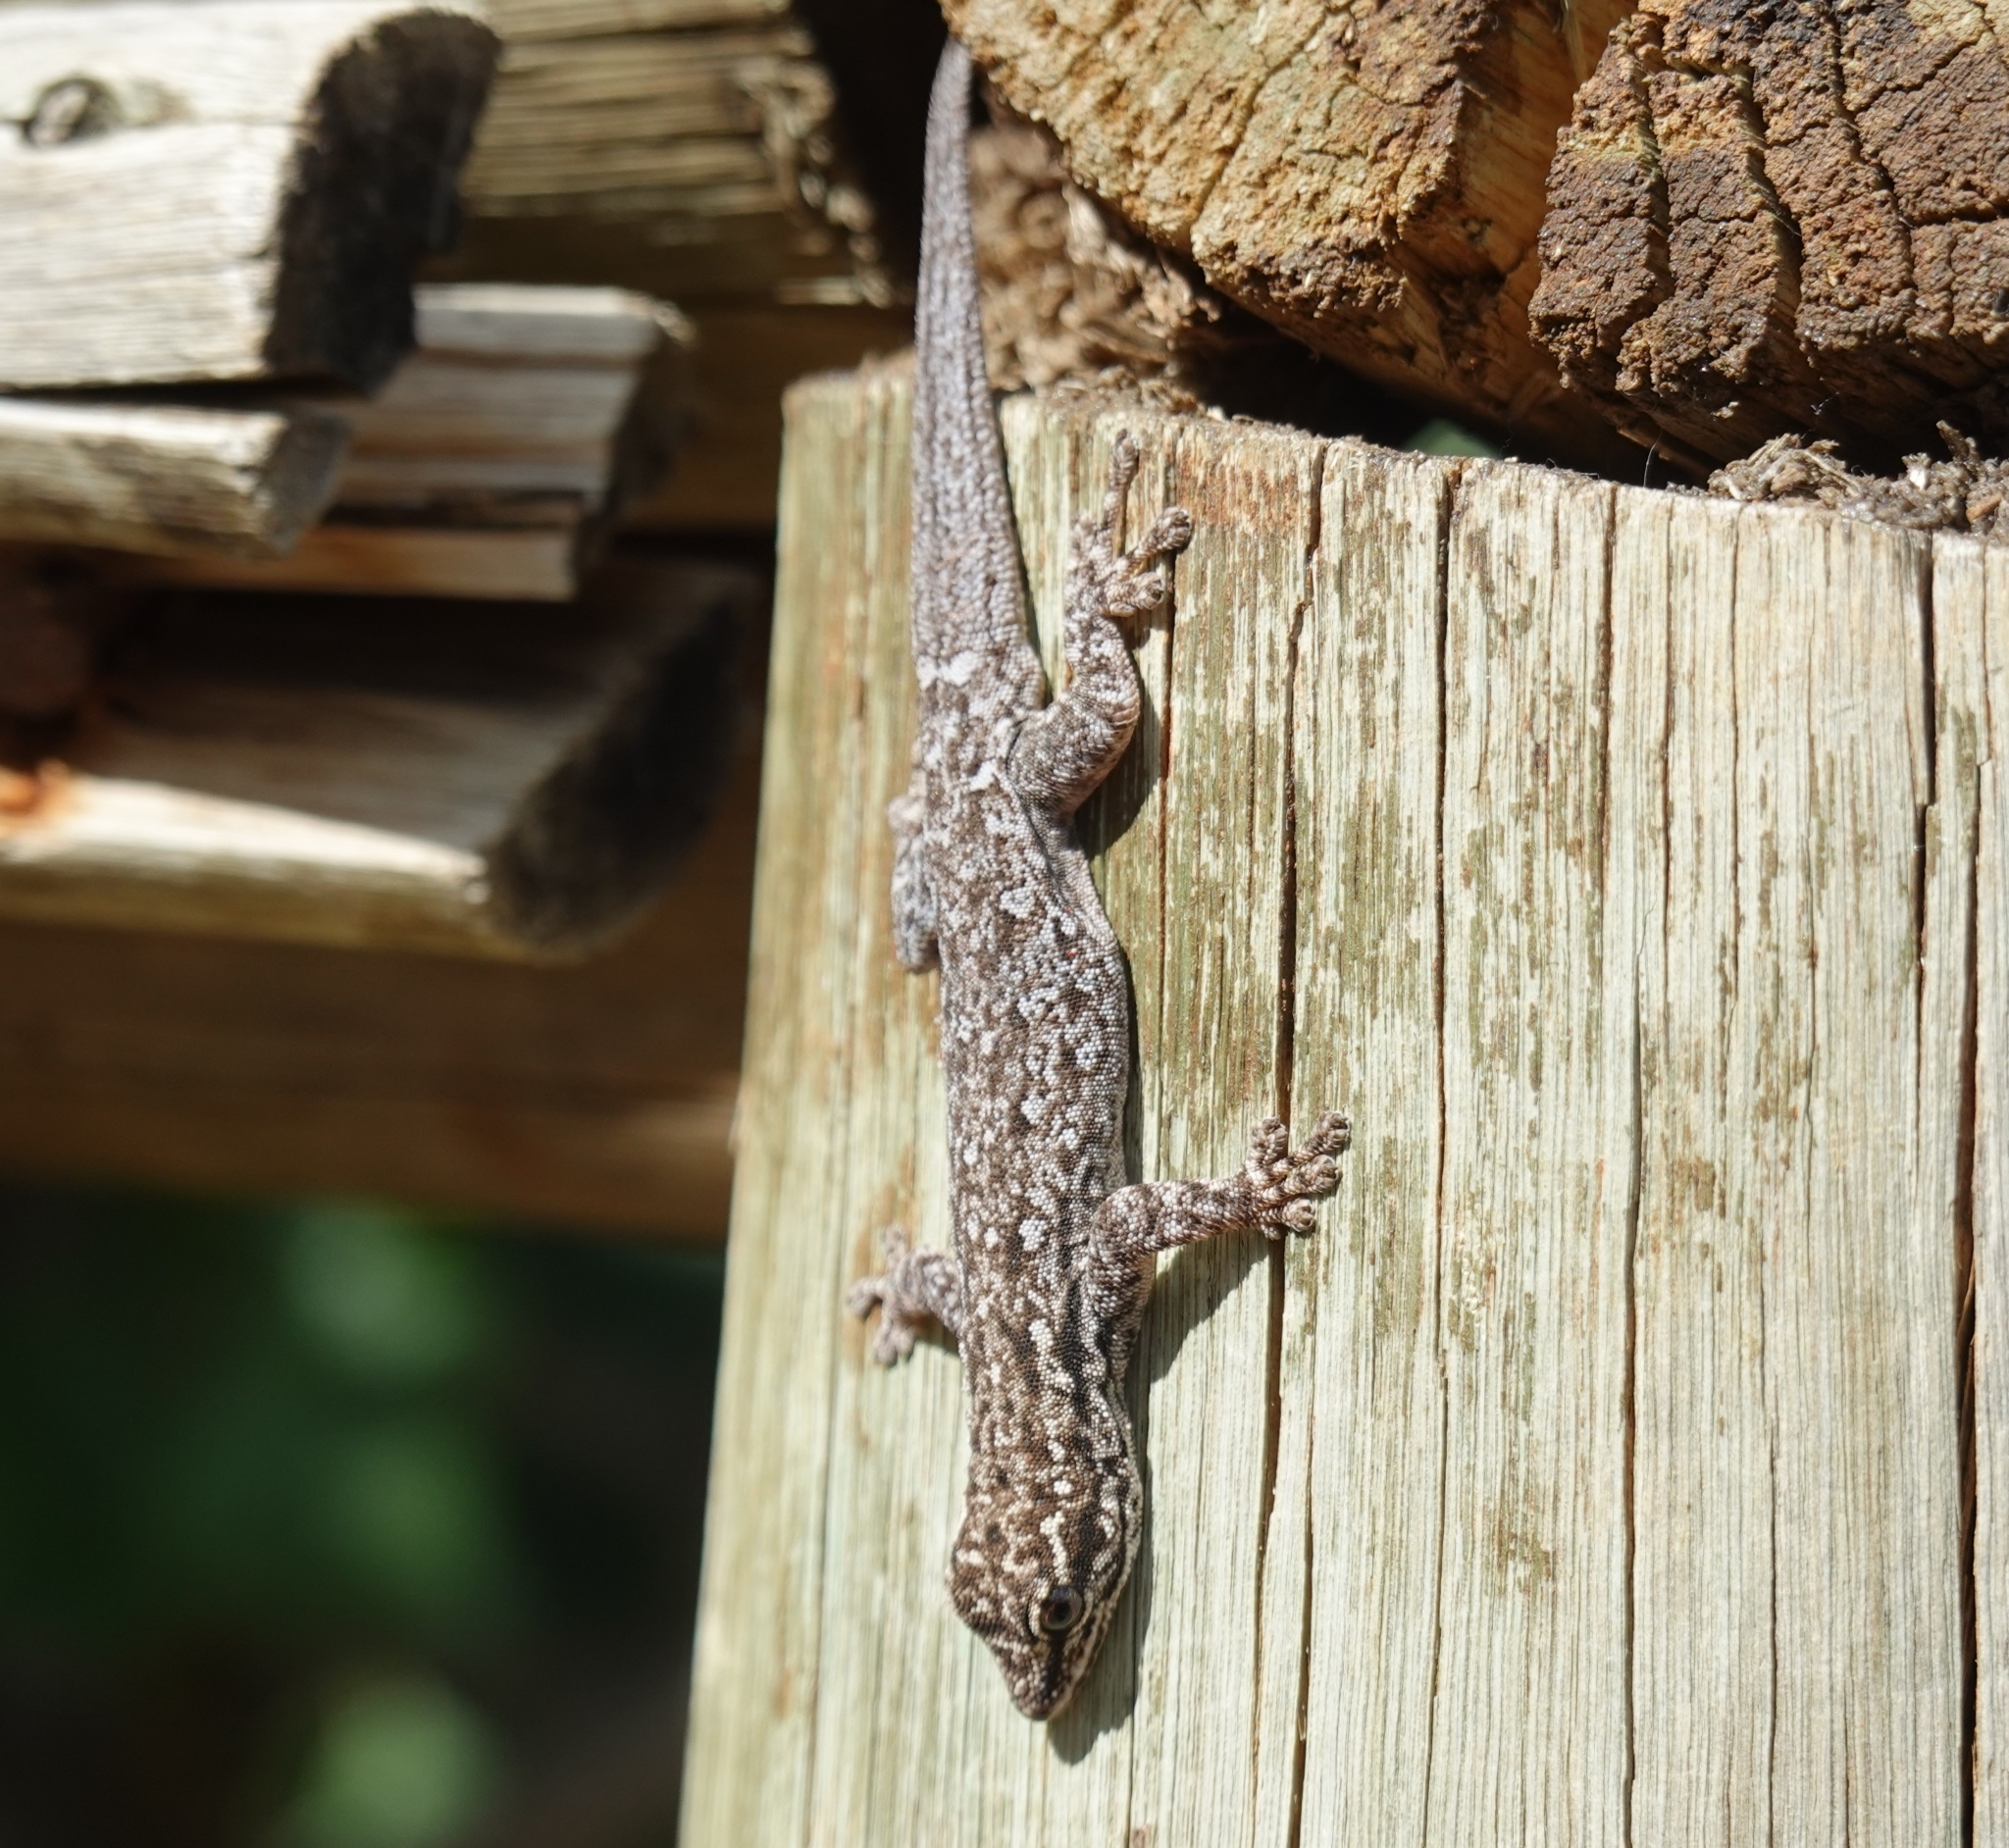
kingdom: Animalia
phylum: Chordata
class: Squamata
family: Gekkonidae
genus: Lygodactylus
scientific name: Lygodactylus chobiensis
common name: Okavango dwarf gecko
